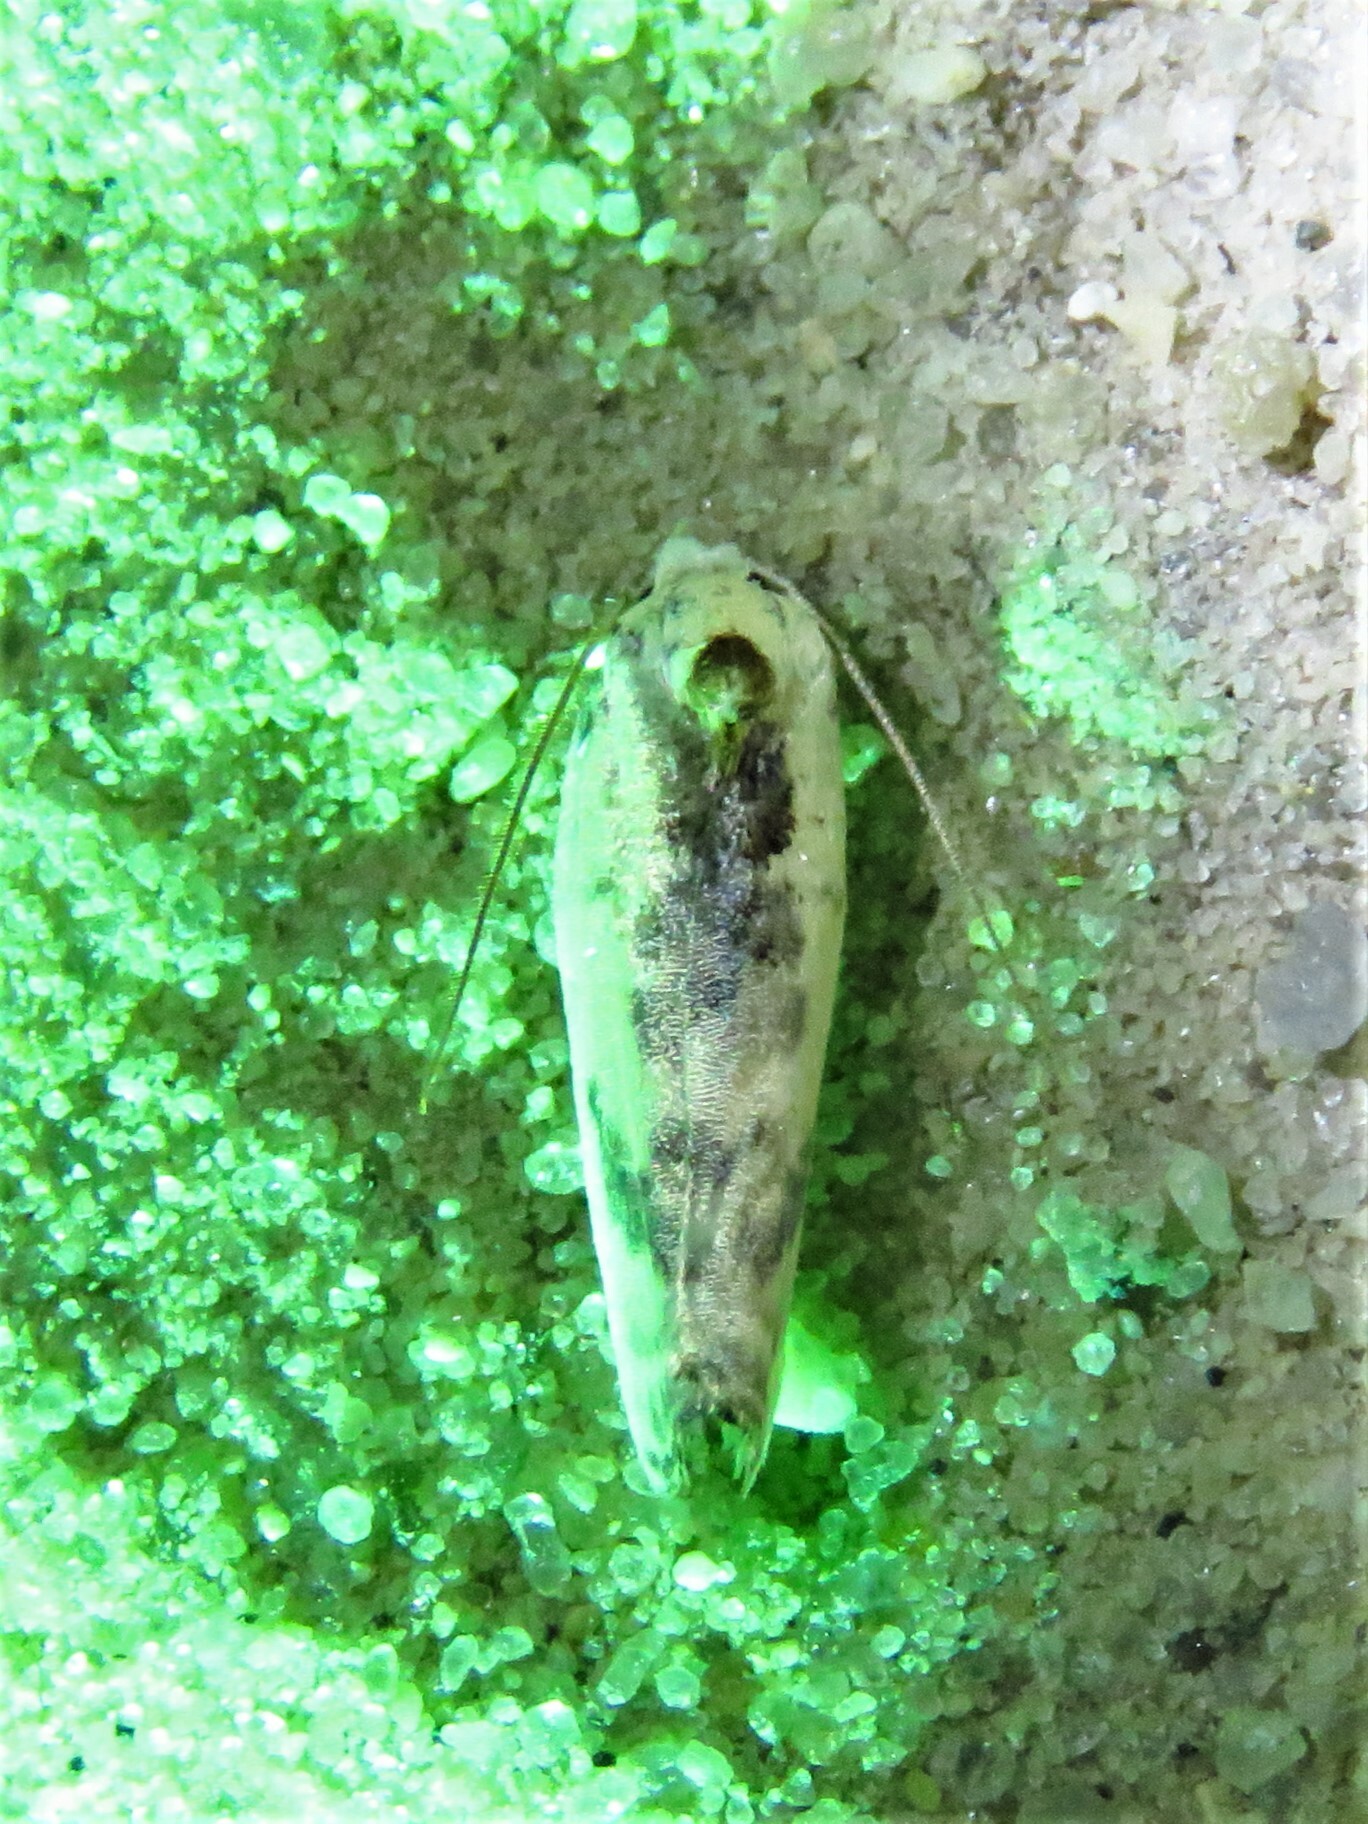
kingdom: Animalia
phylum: Arthropoda
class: Insecta
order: Lepidoptera
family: Depressariidae
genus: Antaeotricha
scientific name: Antaeotricha schlaegeri
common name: Schlaeger's fruitworm moth
